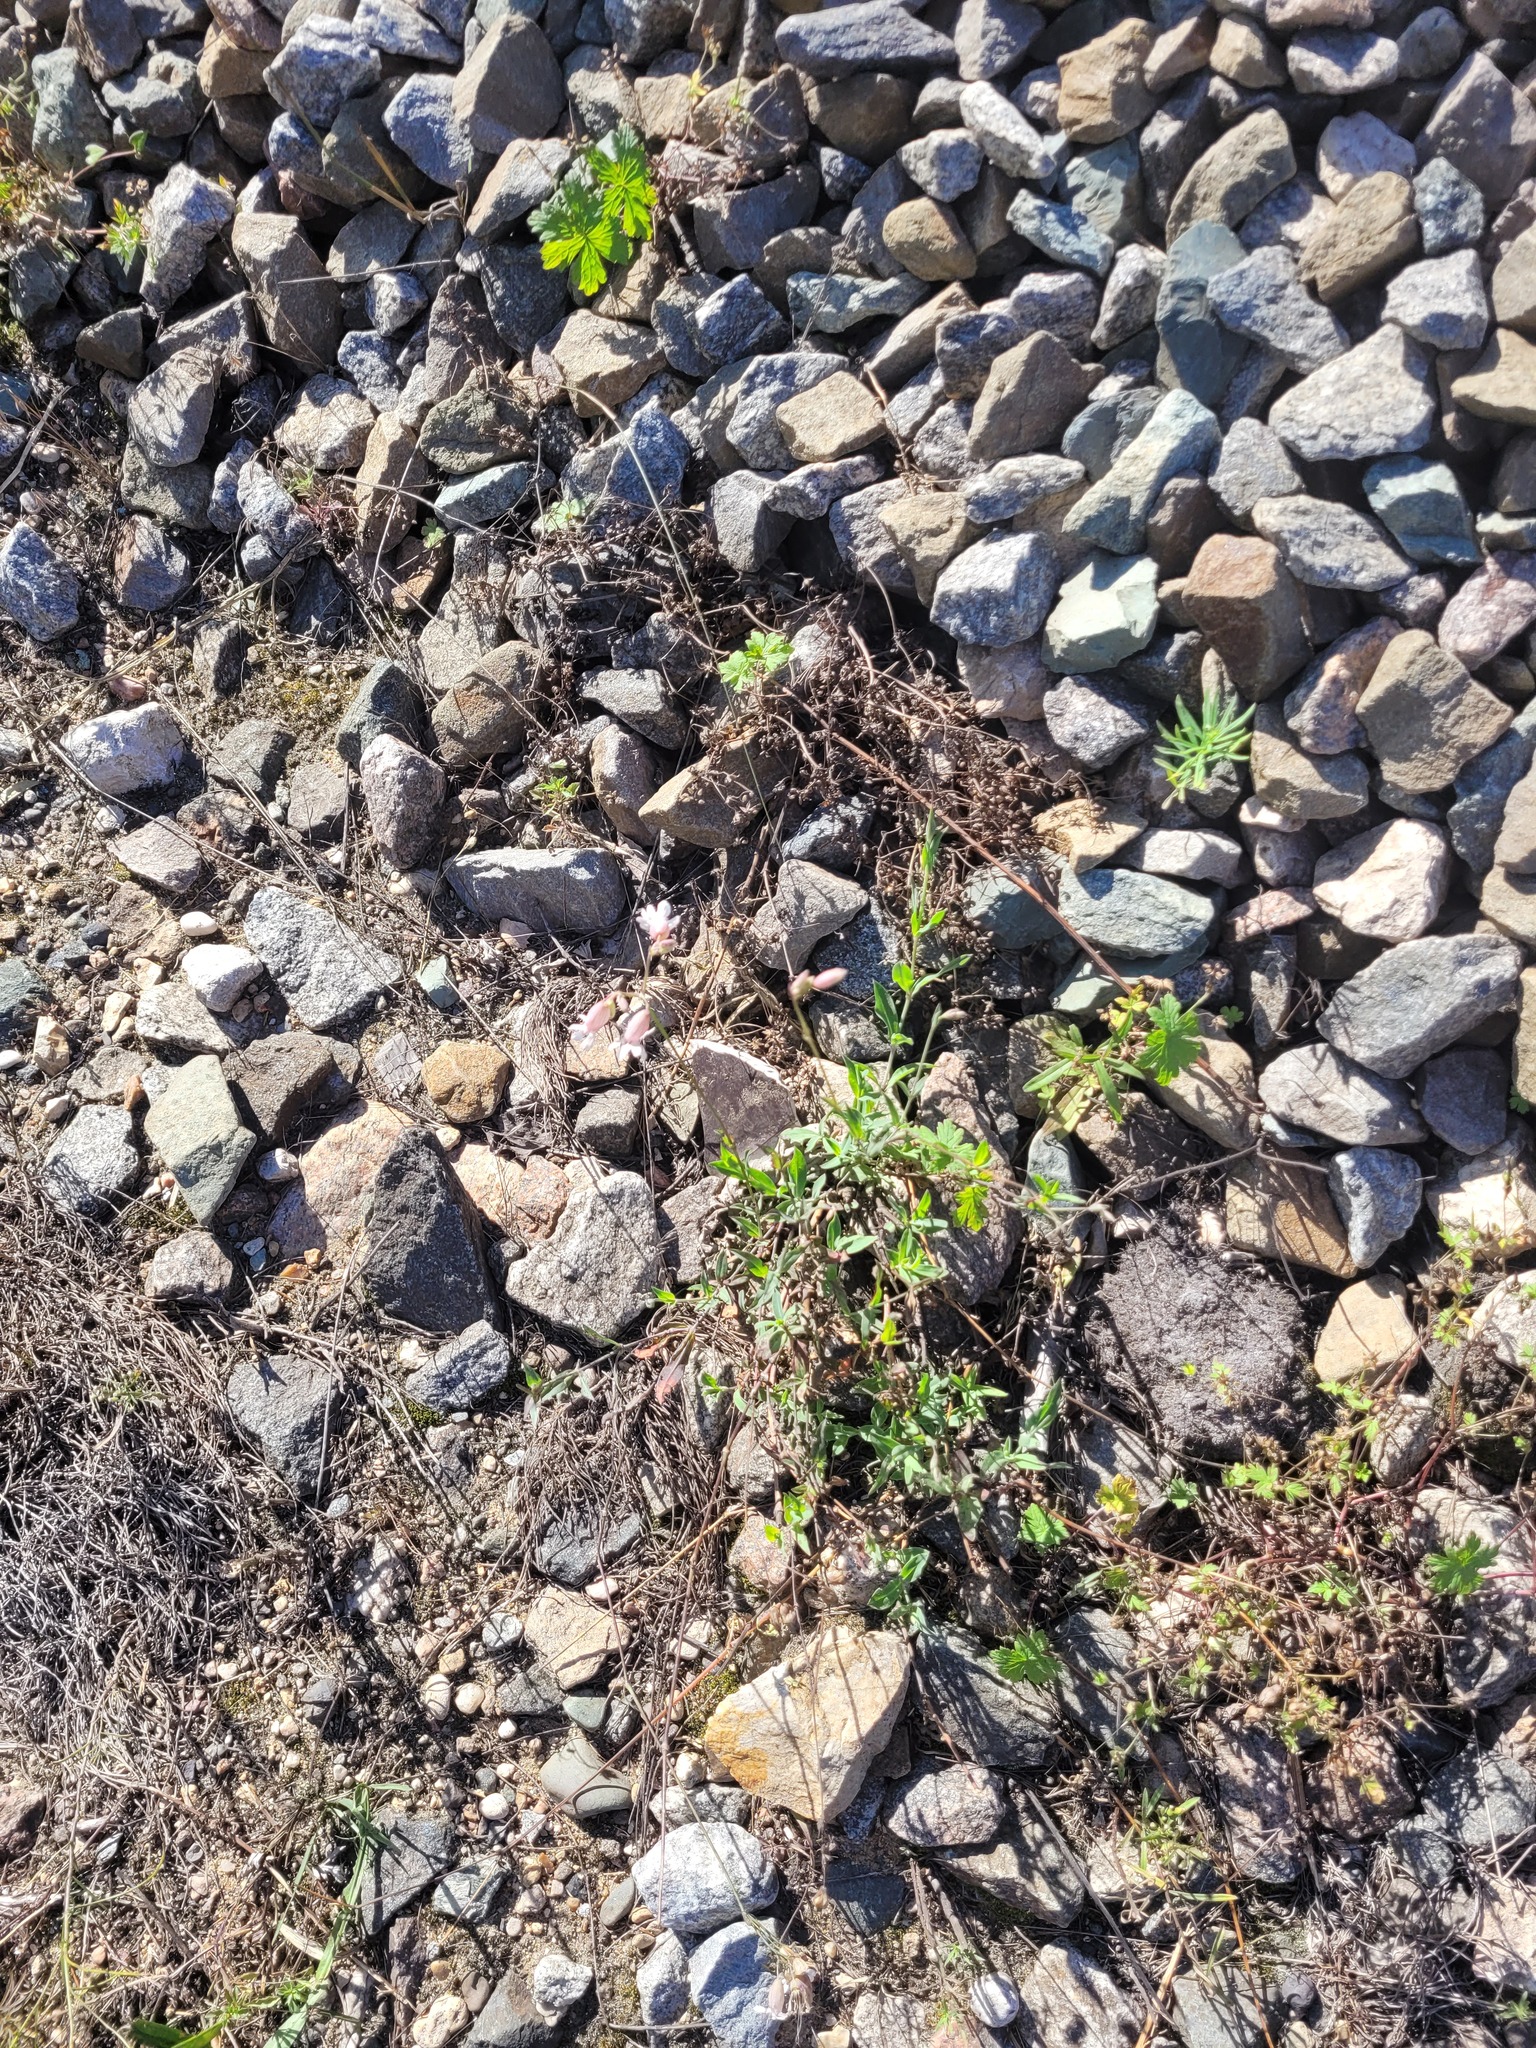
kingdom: Plantae
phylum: Tracheophyta
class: Magnoliopsida
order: Caryophyllales
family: Caryophyllaceae
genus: Silene
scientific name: Silene vulgaris
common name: Bladder campion
